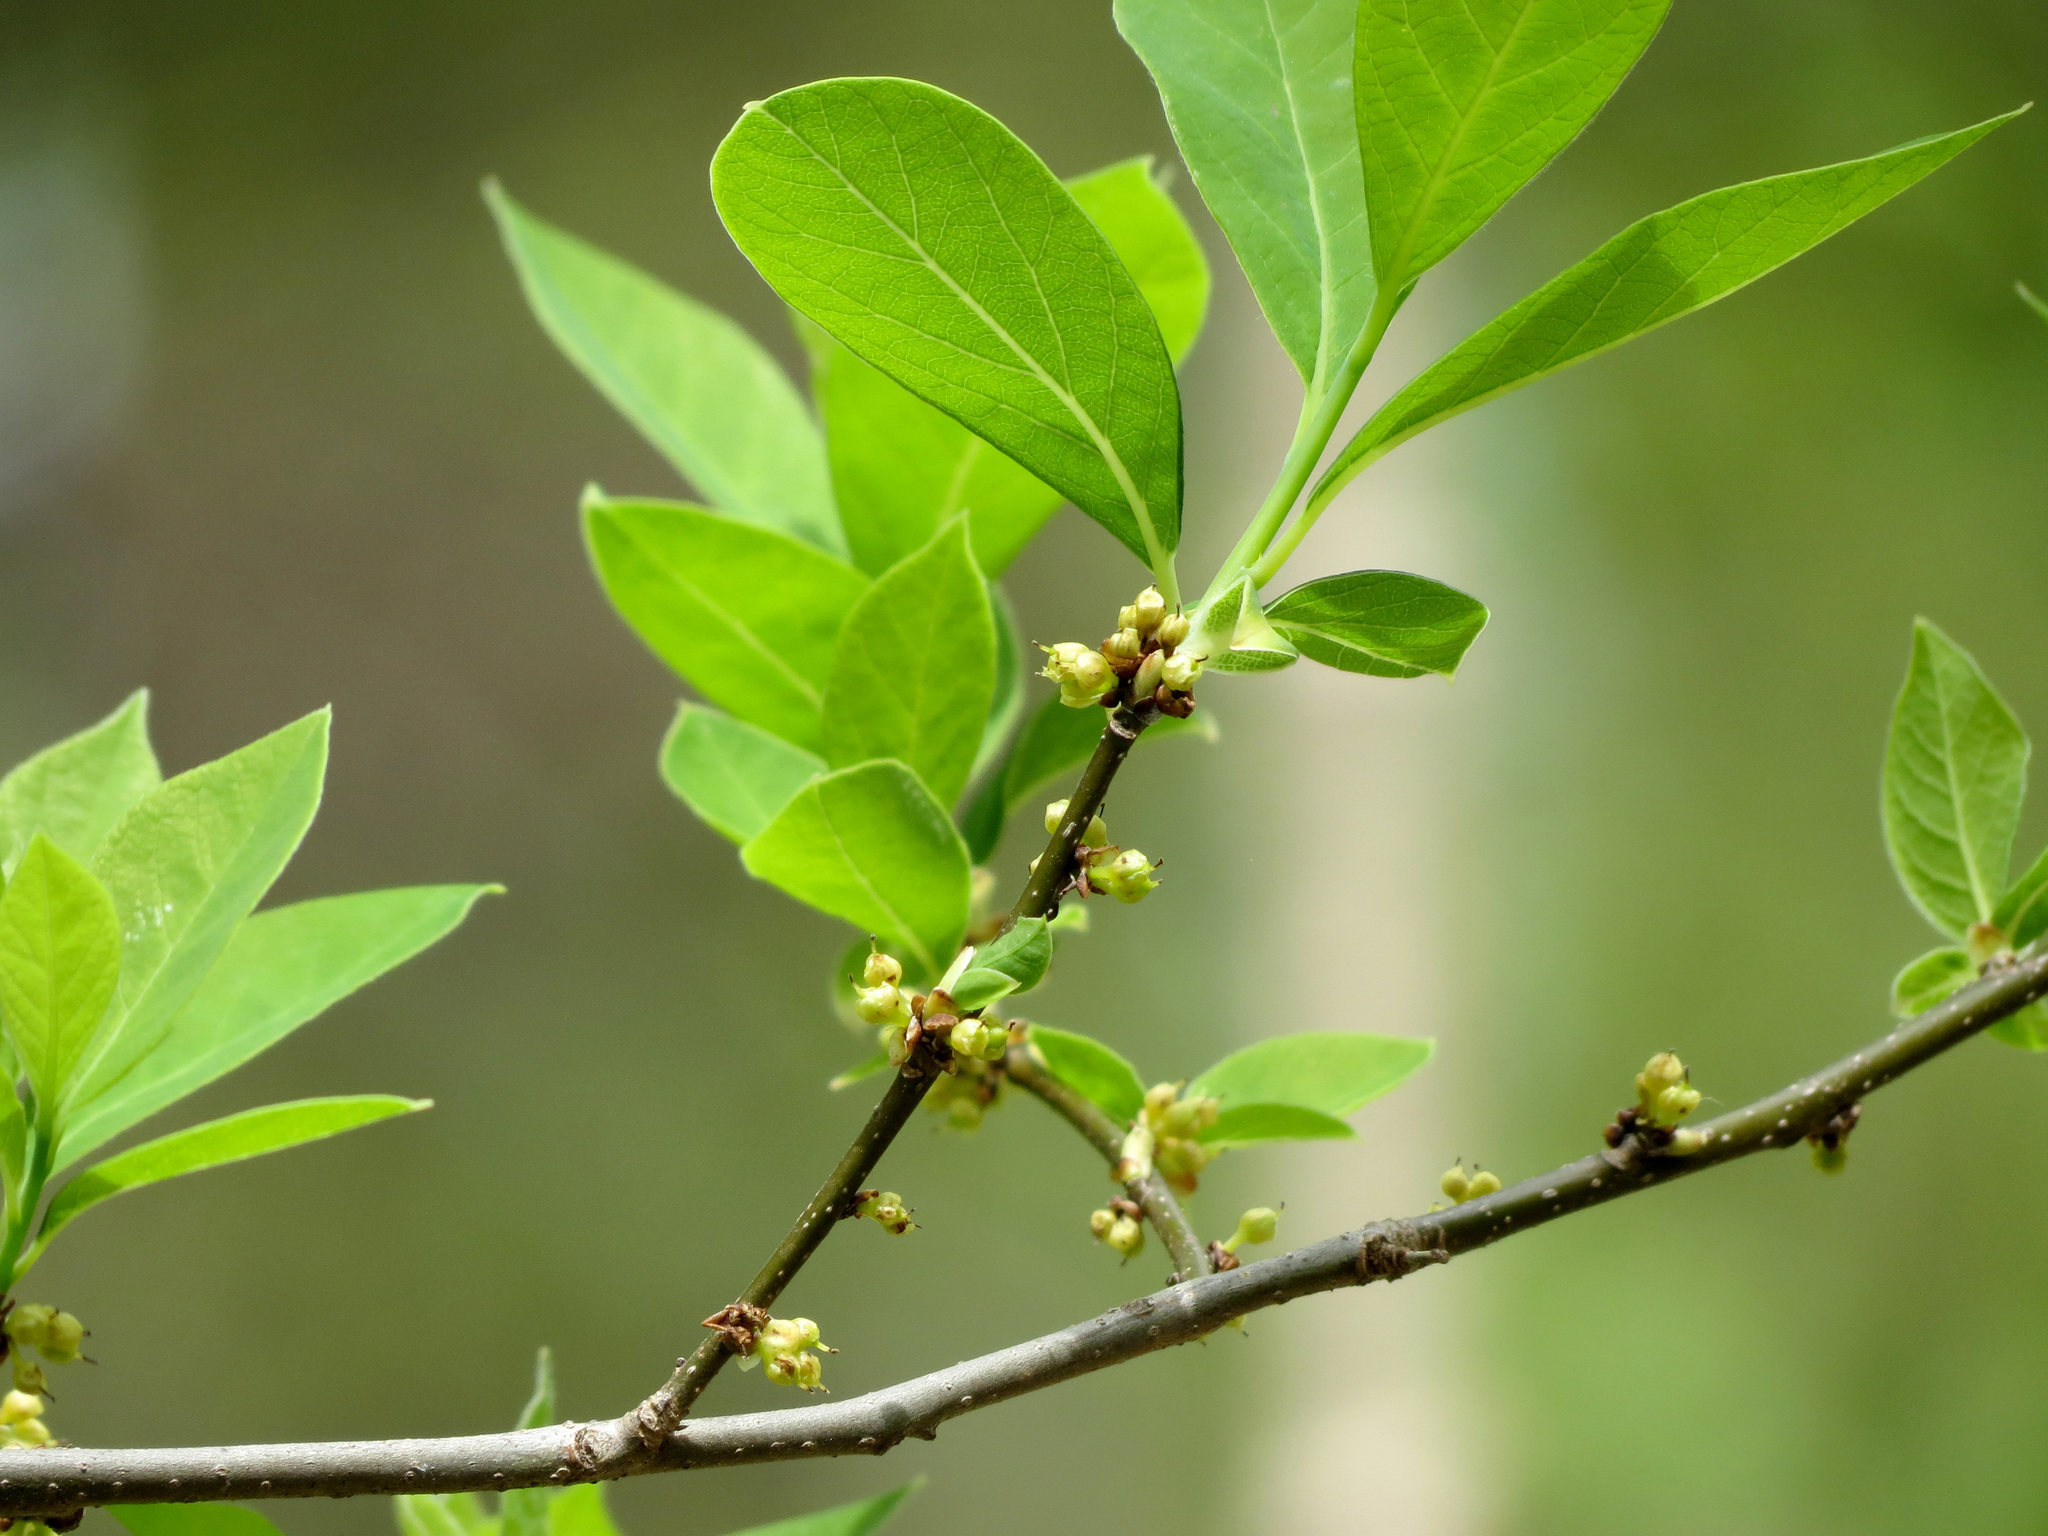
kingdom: Plantae
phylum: Tracheophyta
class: Magnoliopsida
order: Laurales
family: Lauraceae
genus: Lindera
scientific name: Lindera benzoin
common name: Spicebush
